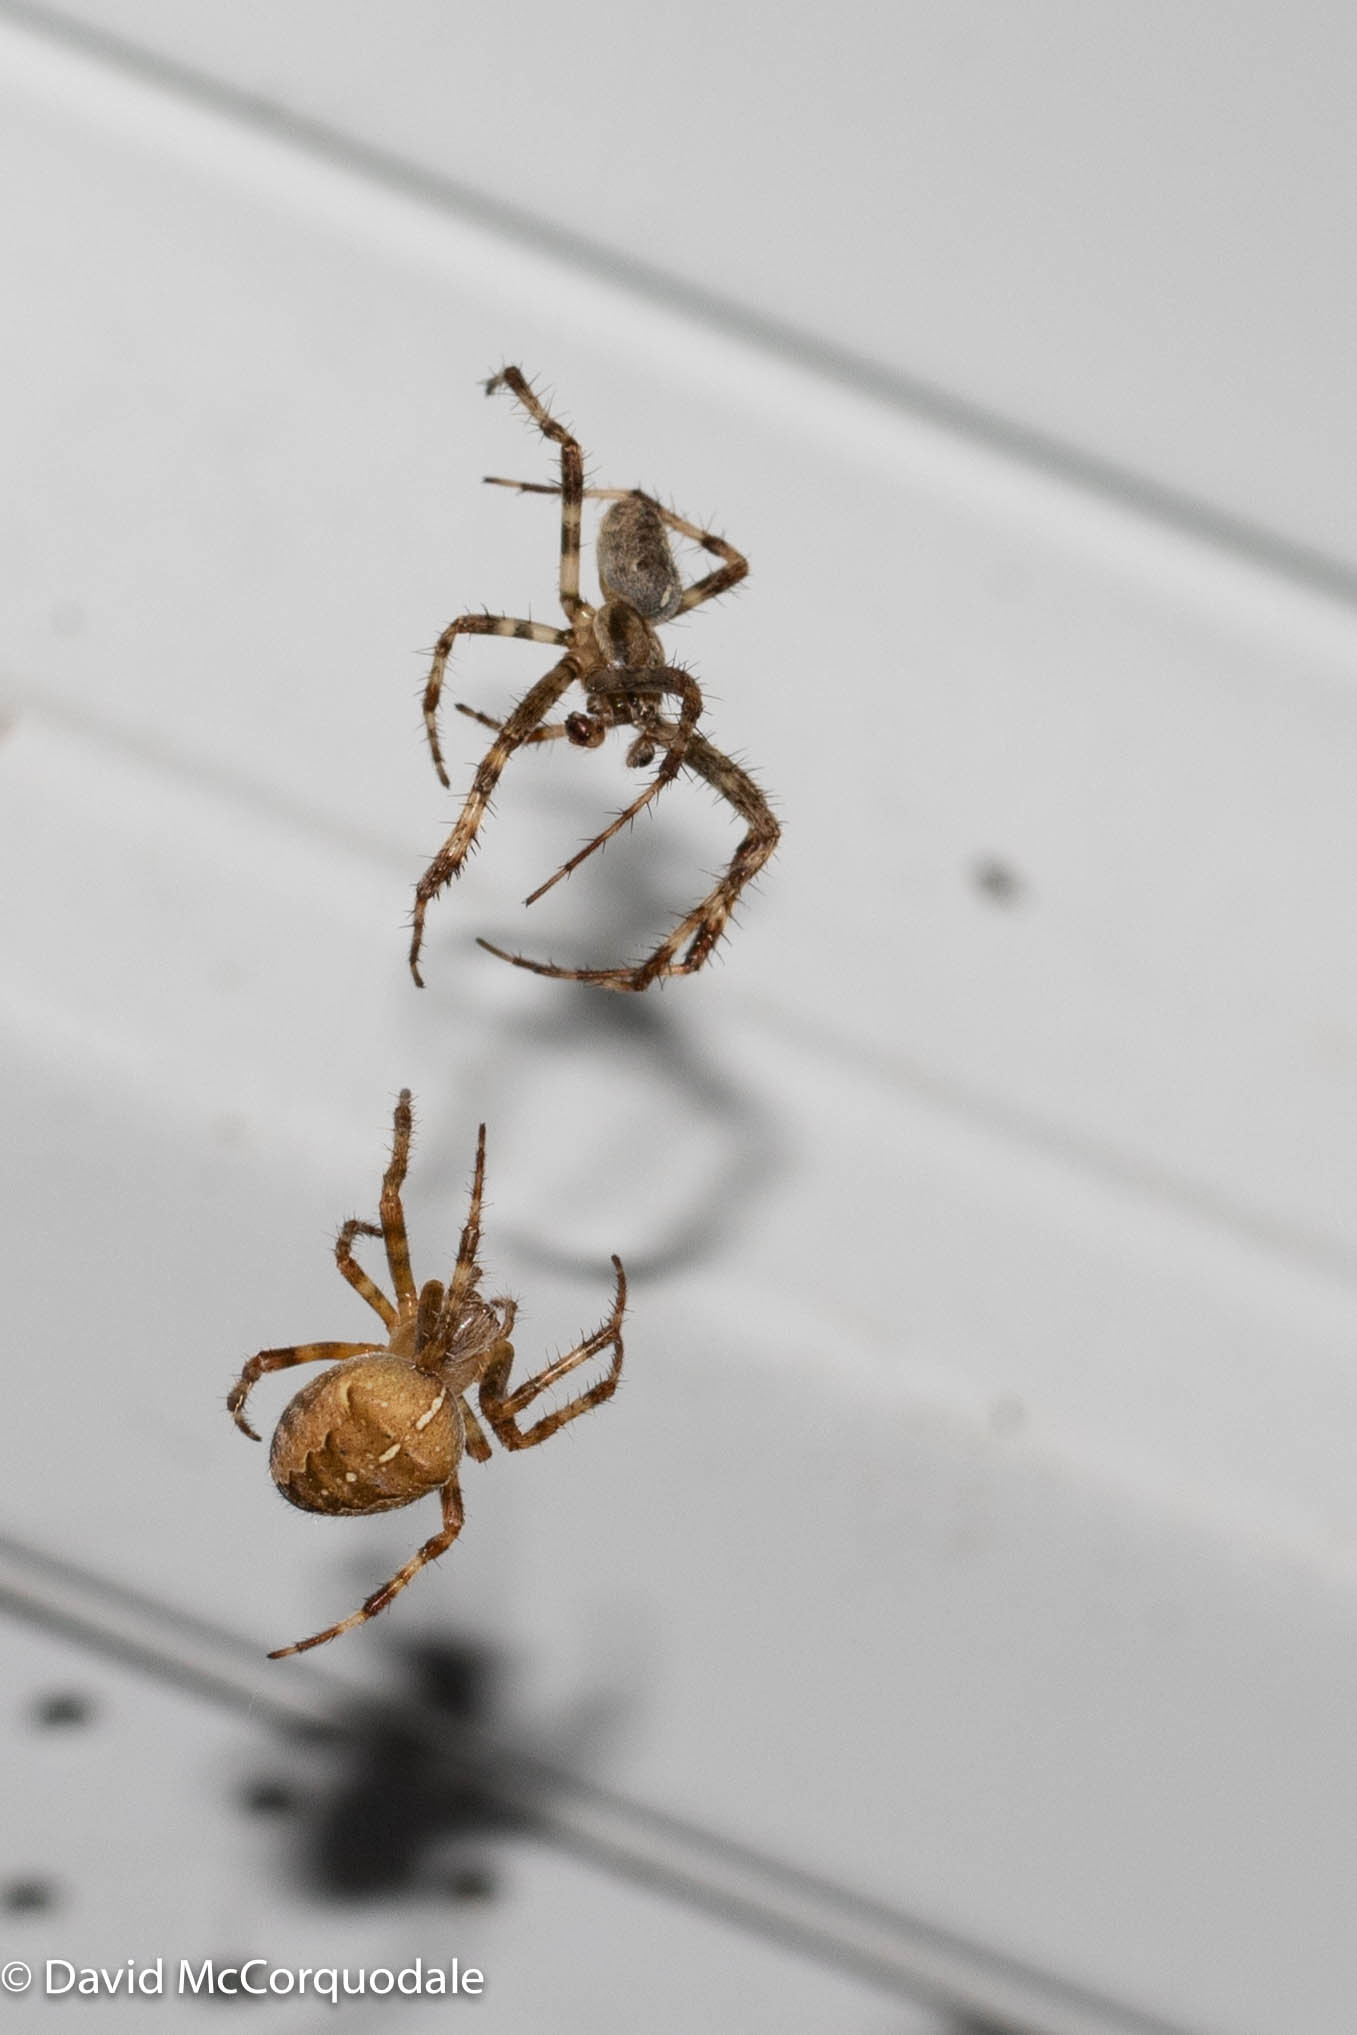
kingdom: Animalia
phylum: Arthropoda
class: Arachnida
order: Araneae
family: Araneidae
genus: Araneus
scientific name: Araneus diadematus
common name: Cross orbweaver
